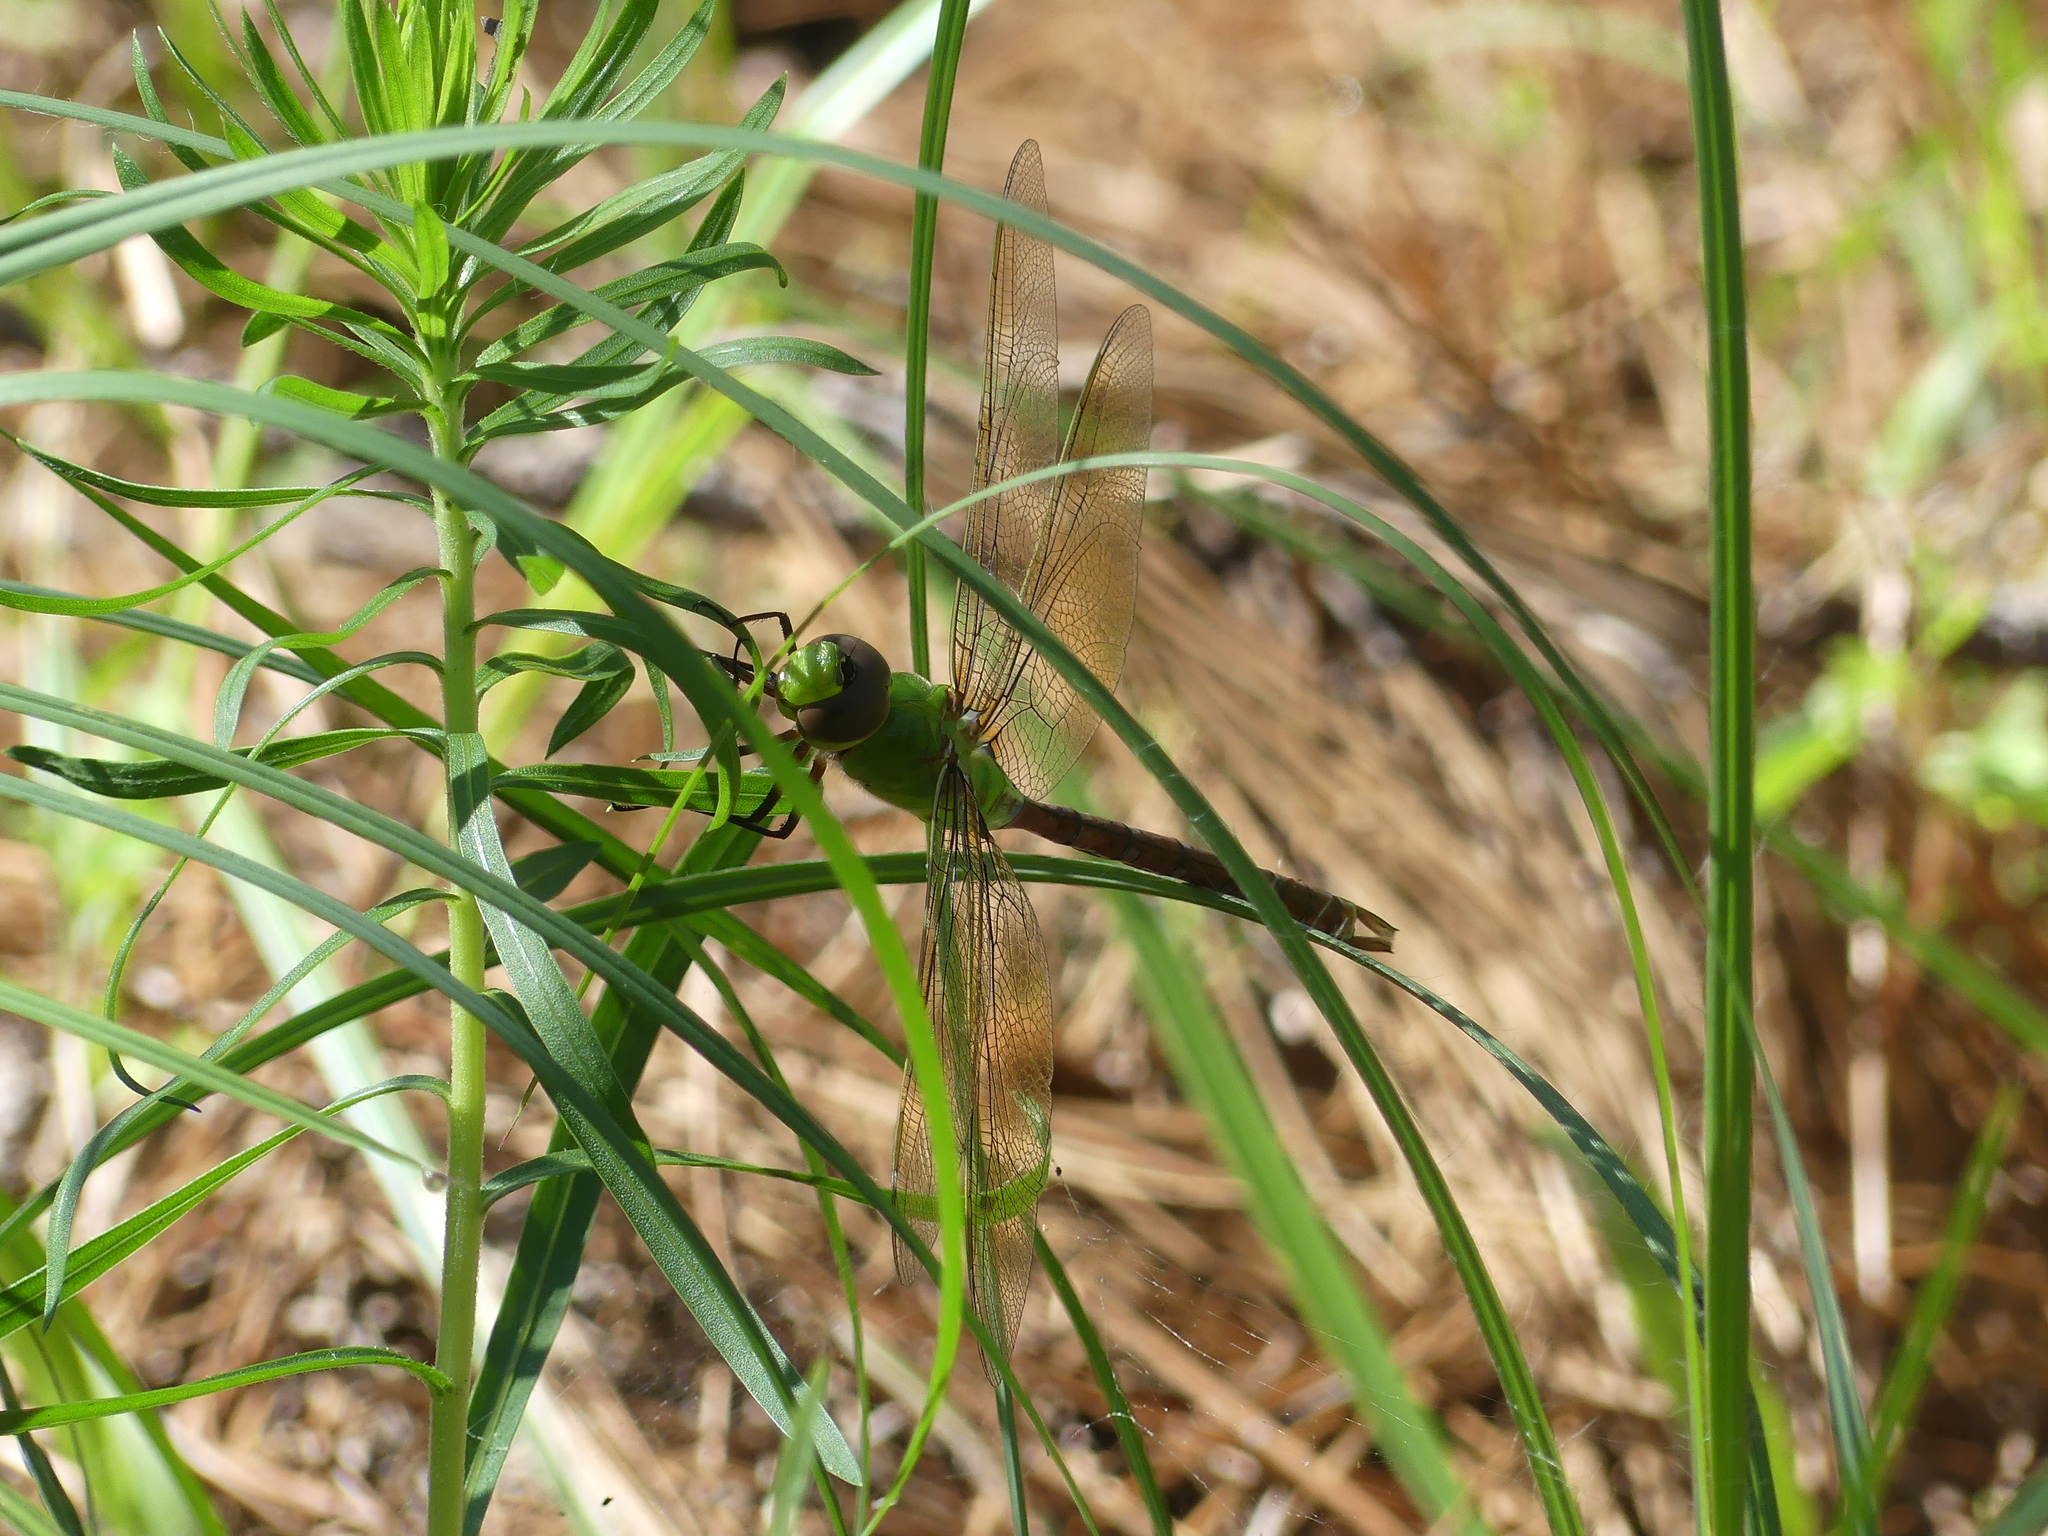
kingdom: Animalia
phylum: Arthropoda
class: Insecta
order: Odonata
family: Aeshnidae
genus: Anax
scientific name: Anax junius
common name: Common green darner
